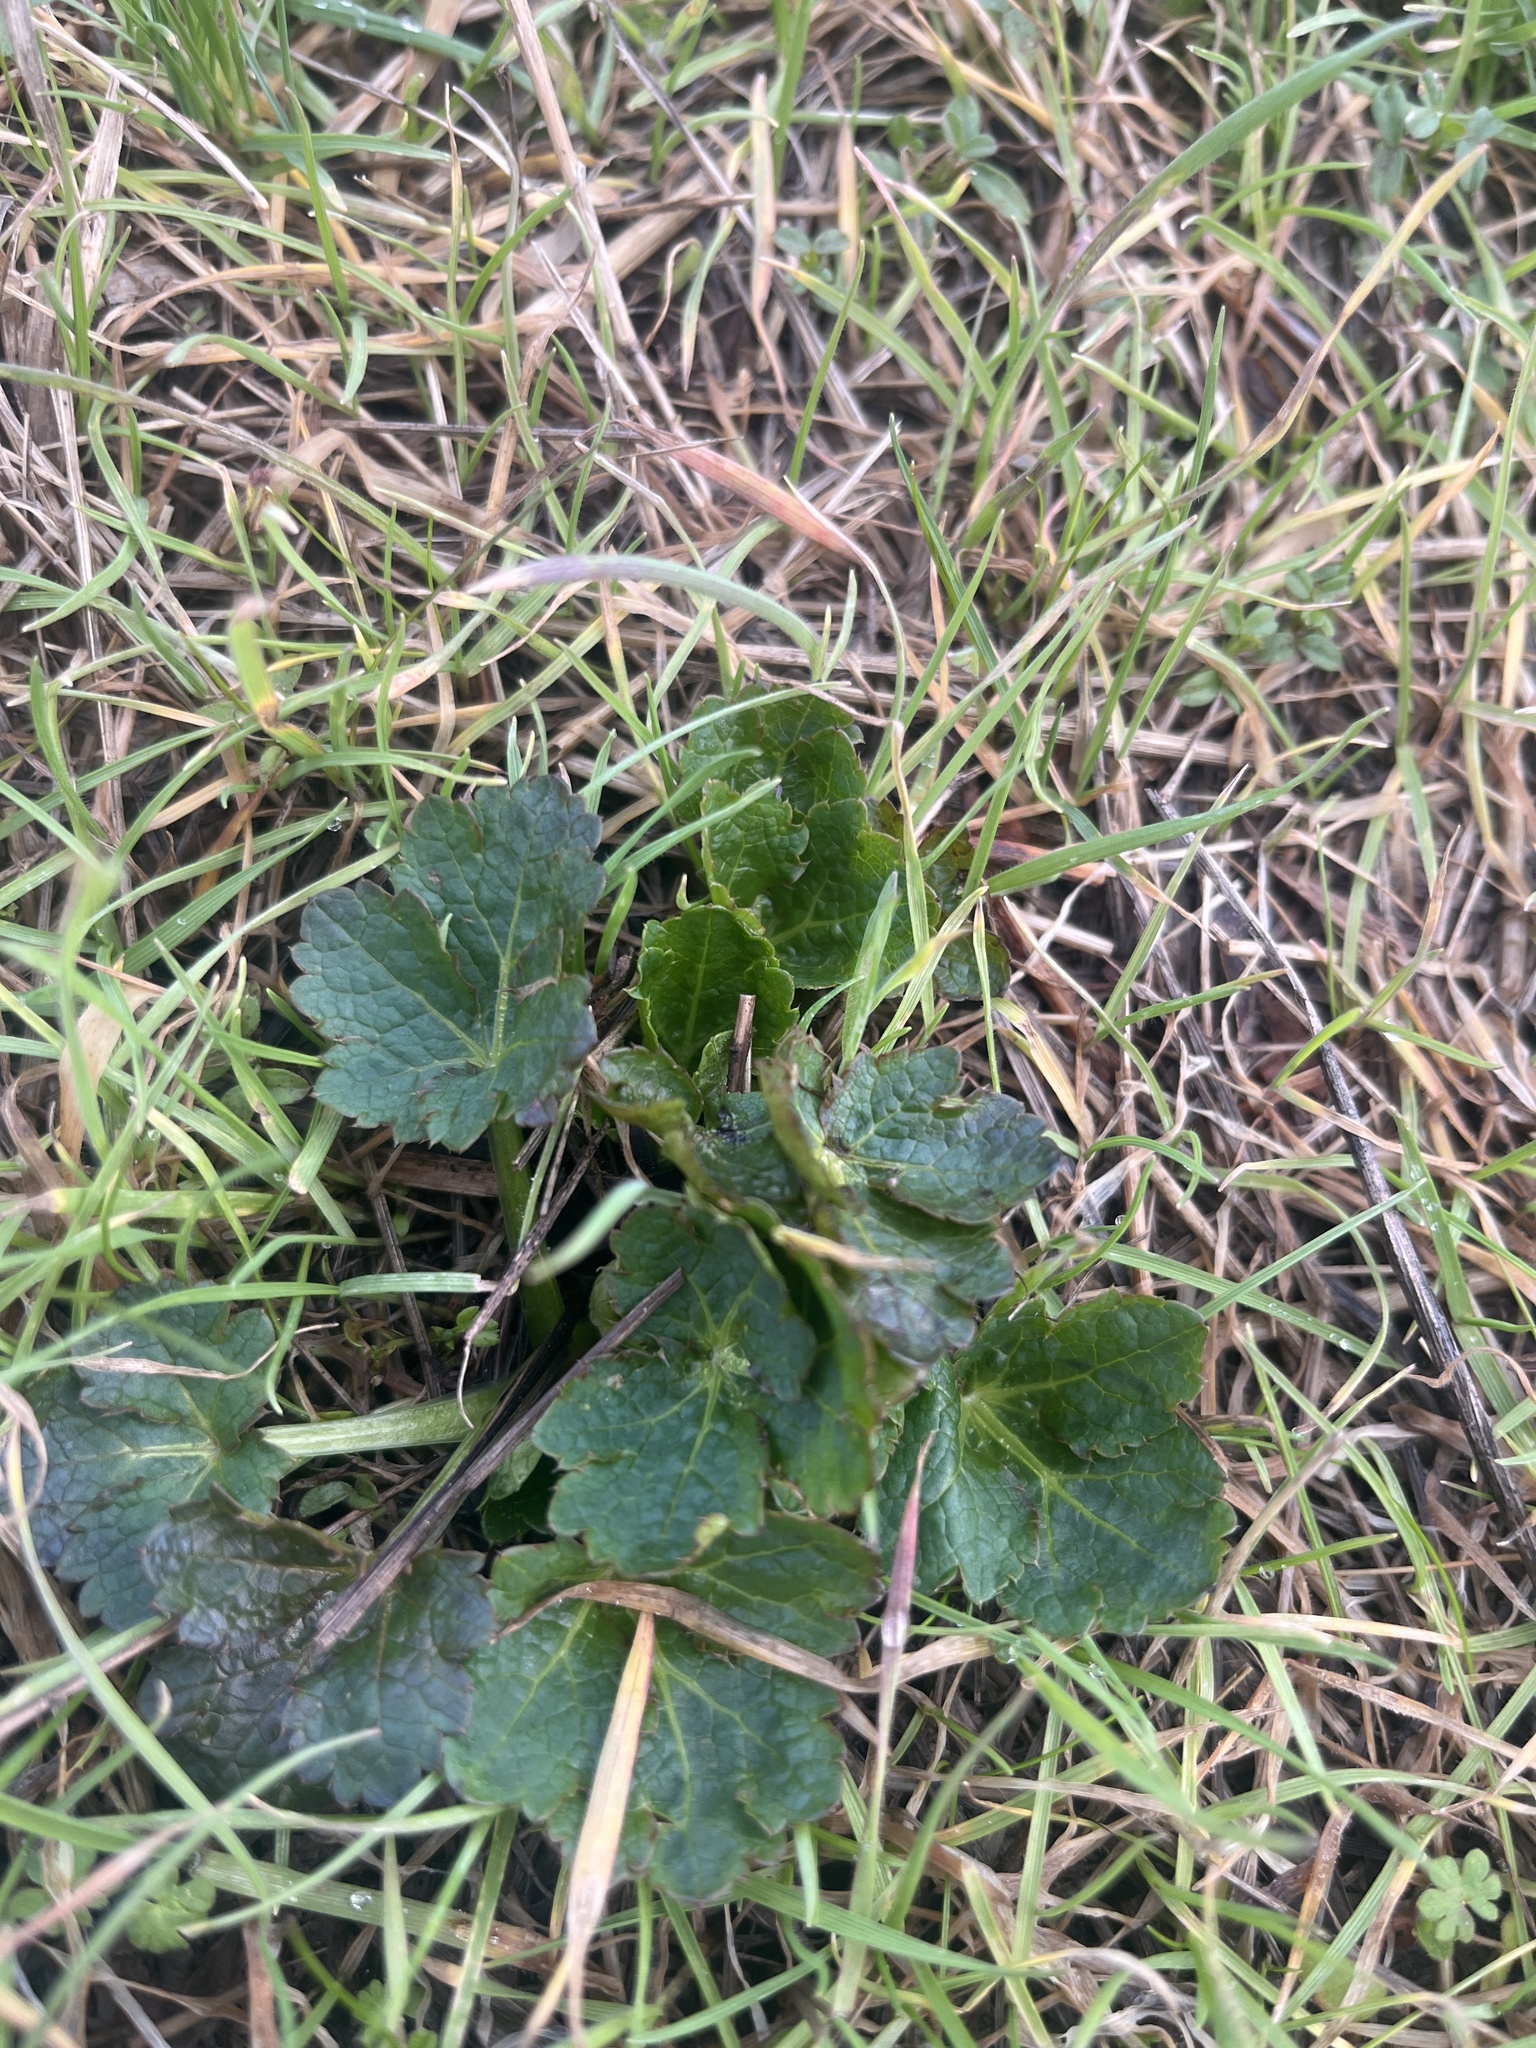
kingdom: Plantae
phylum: Tracheophyta
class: Magnoliopsida
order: Apiales
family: Apiaceae
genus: Sanicula
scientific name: Sanicula crassicaulis
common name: Western snakeroot
